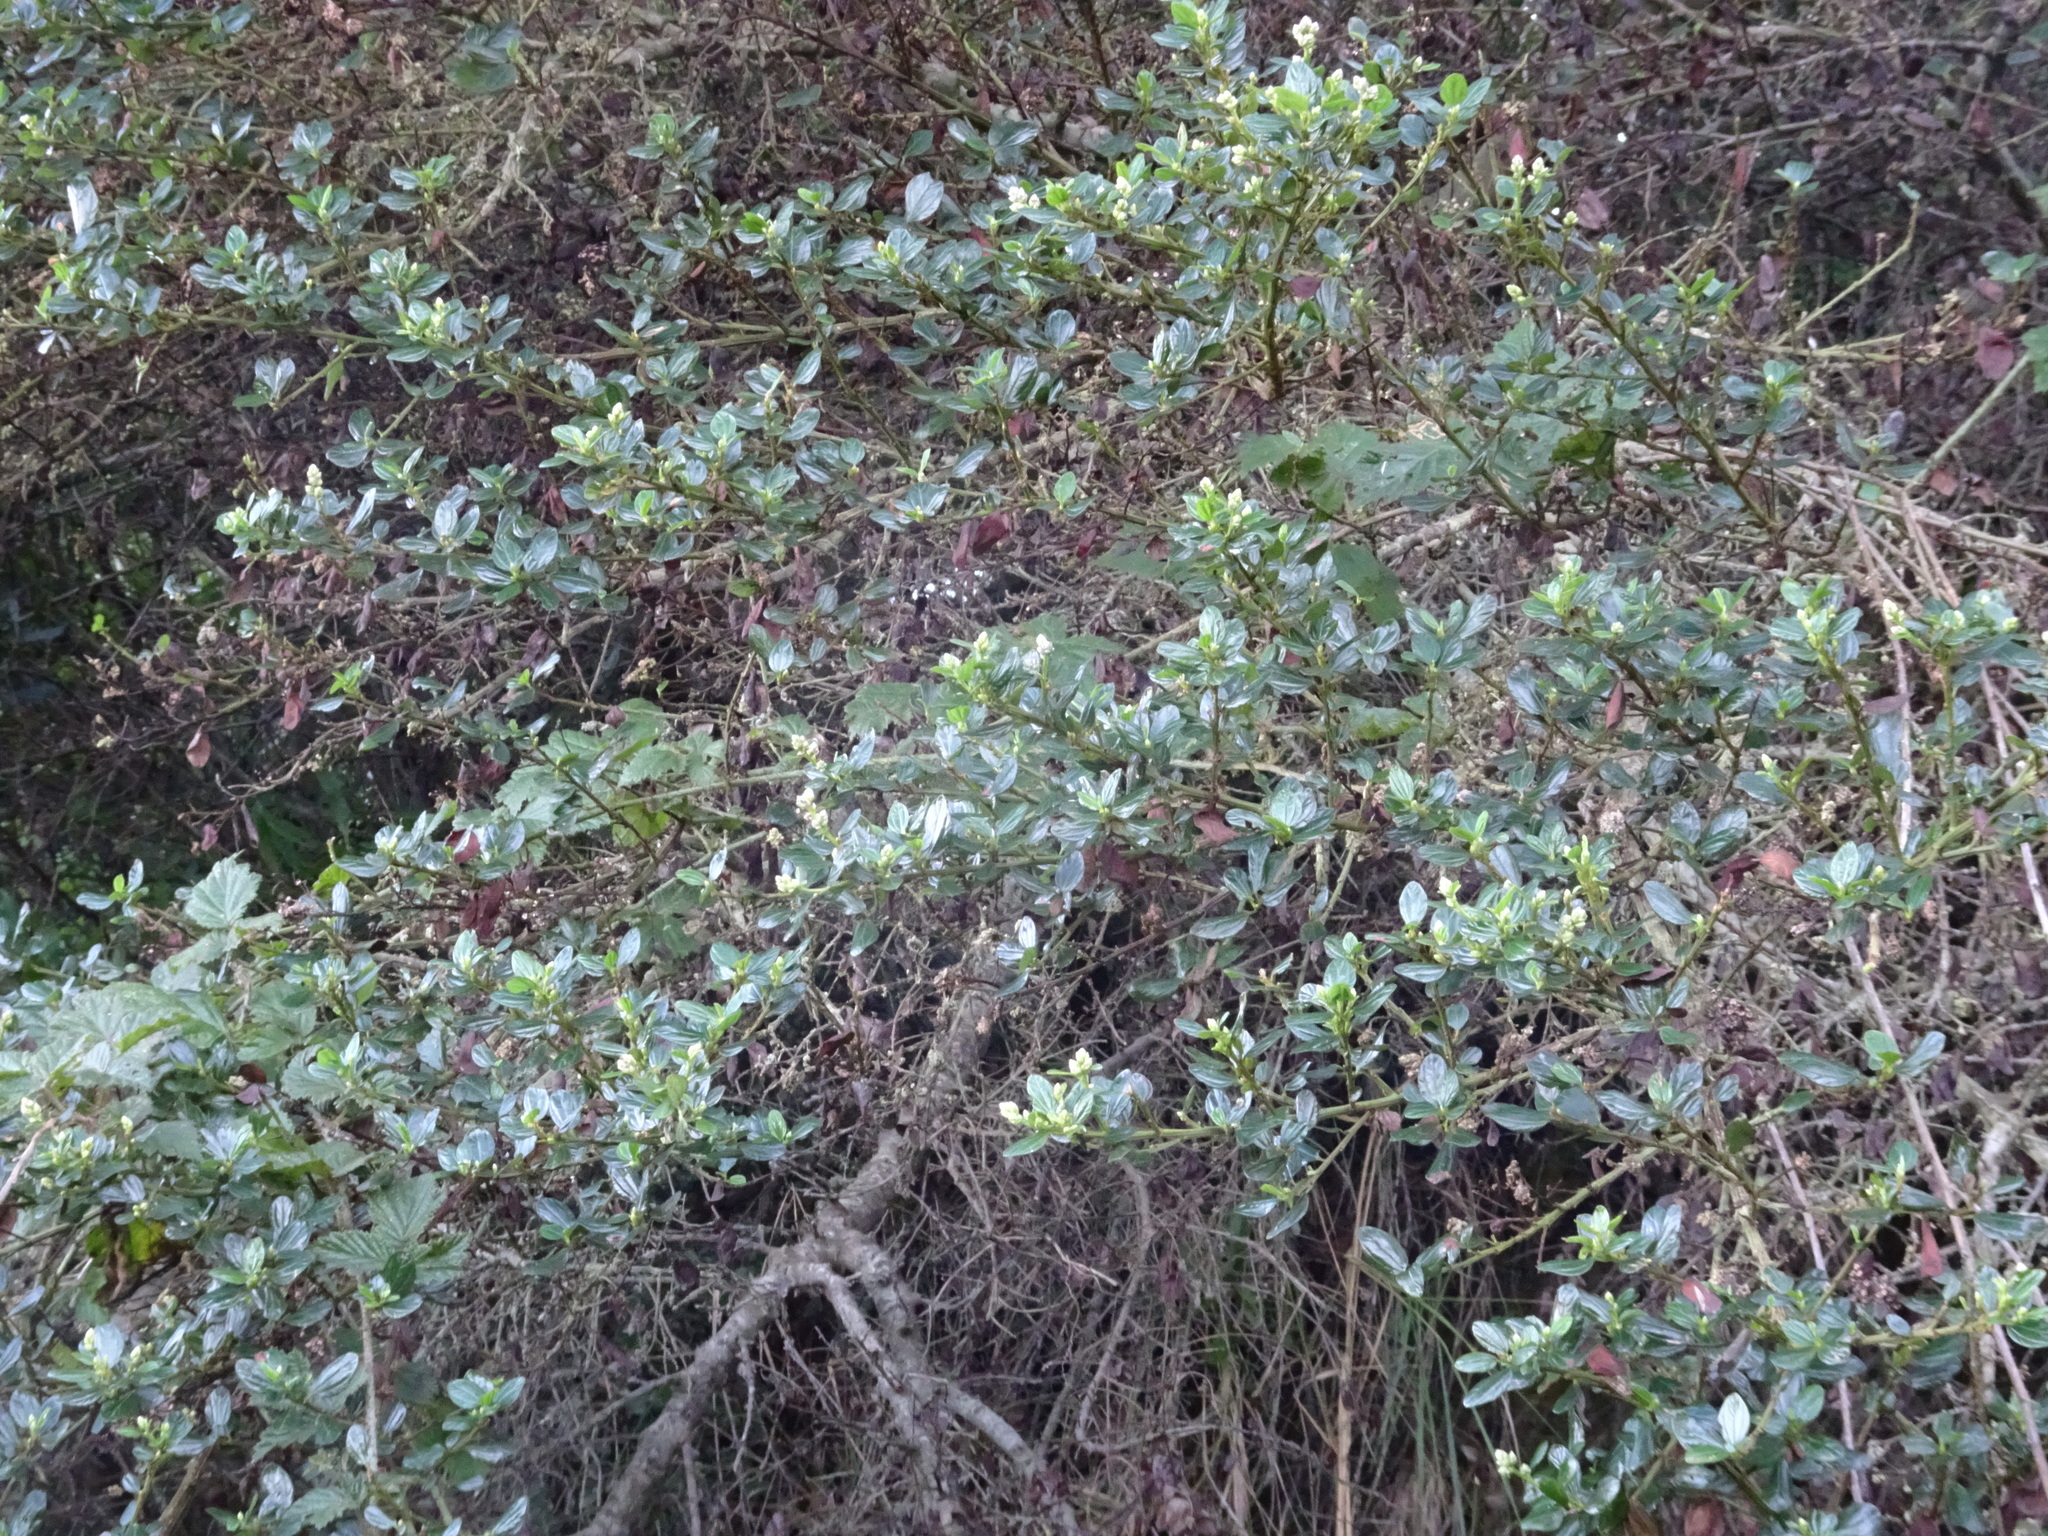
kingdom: Plantae
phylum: Tracheophyta
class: Magnoliopsida
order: Rosales
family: Rhamnaceae
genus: Ceanothus
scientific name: Ceanothus thyrsiflorus
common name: California-lilac
